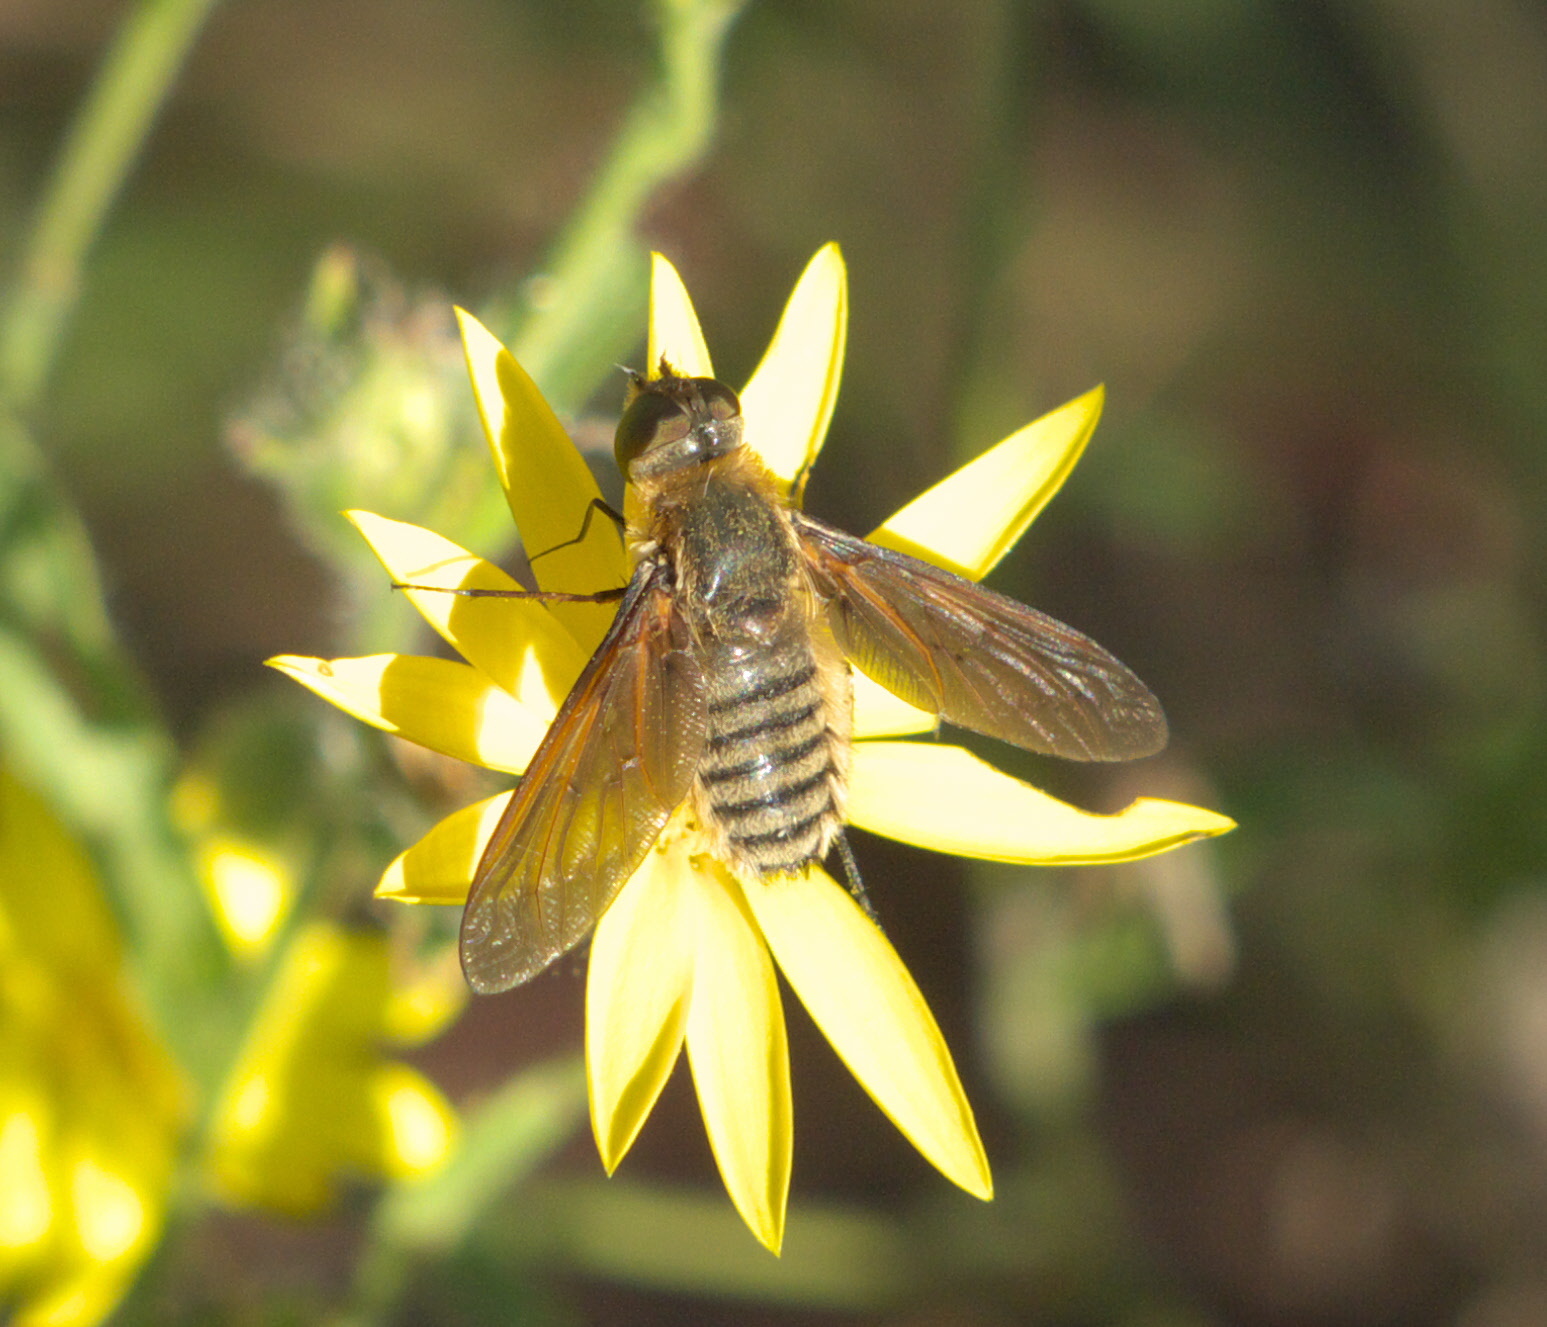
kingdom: Animalia
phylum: Arthropoda
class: Insecta
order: Diptera
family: Bombyliidae
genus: Poecilanthrax
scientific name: Poecilanthrax lucifer
